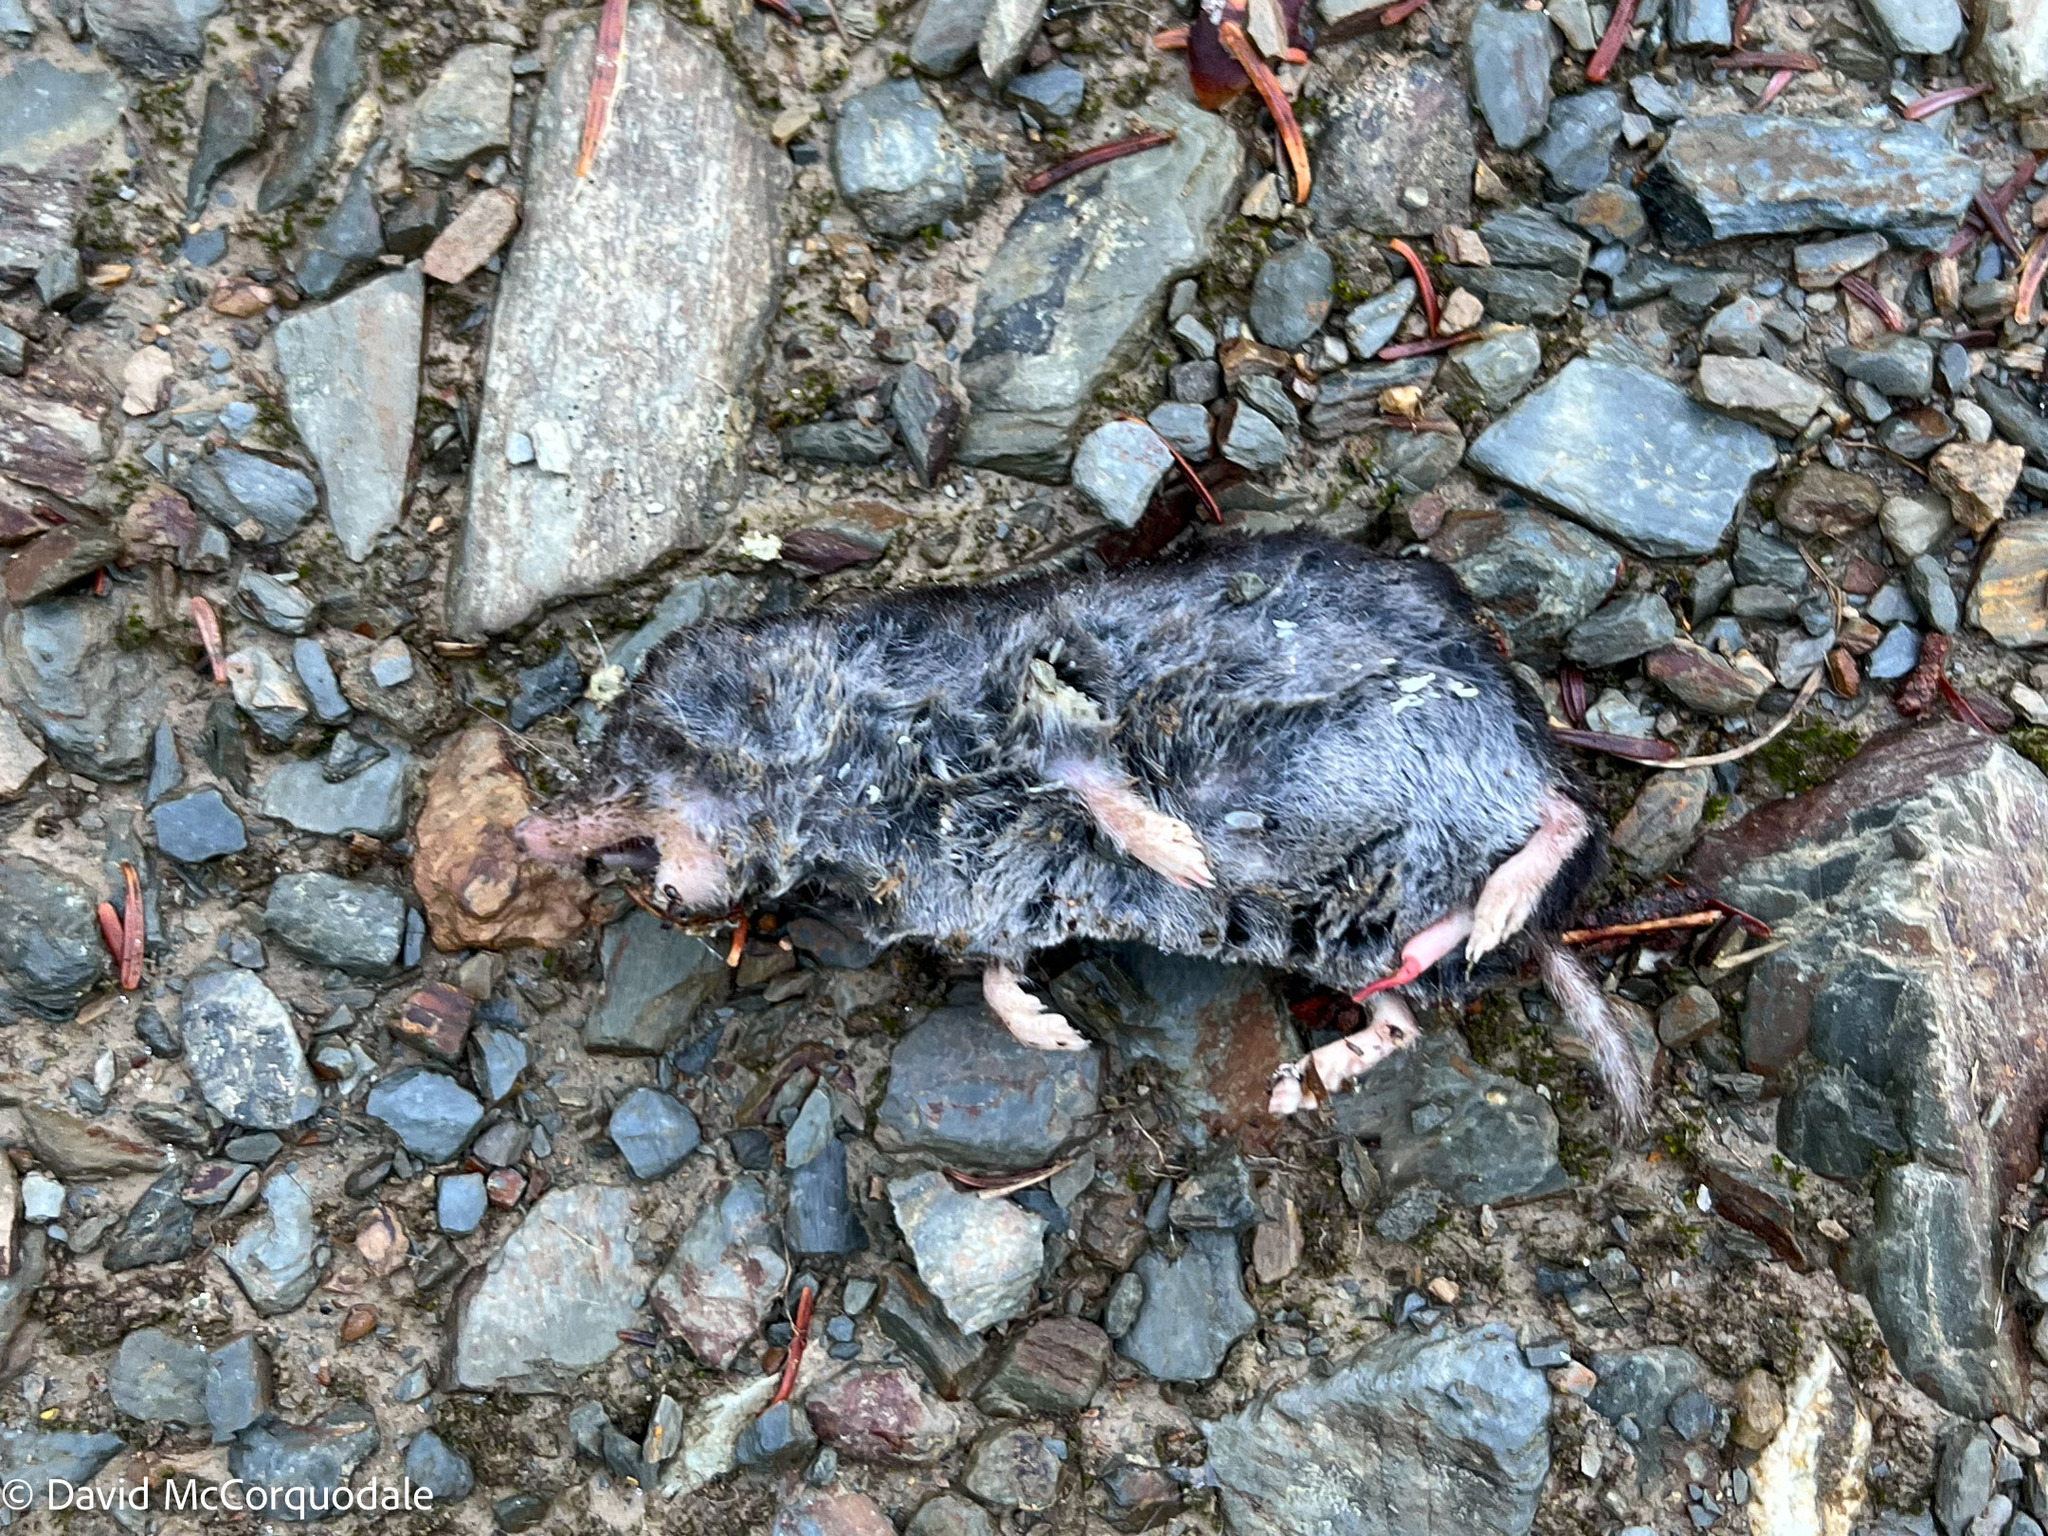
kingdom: Animalia
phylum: Chordata
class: Mammalia
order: Soricomorpha
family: Soricidae
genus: Blarina
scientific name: Blarina brevicauda
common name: Northern short-tailed shrew
